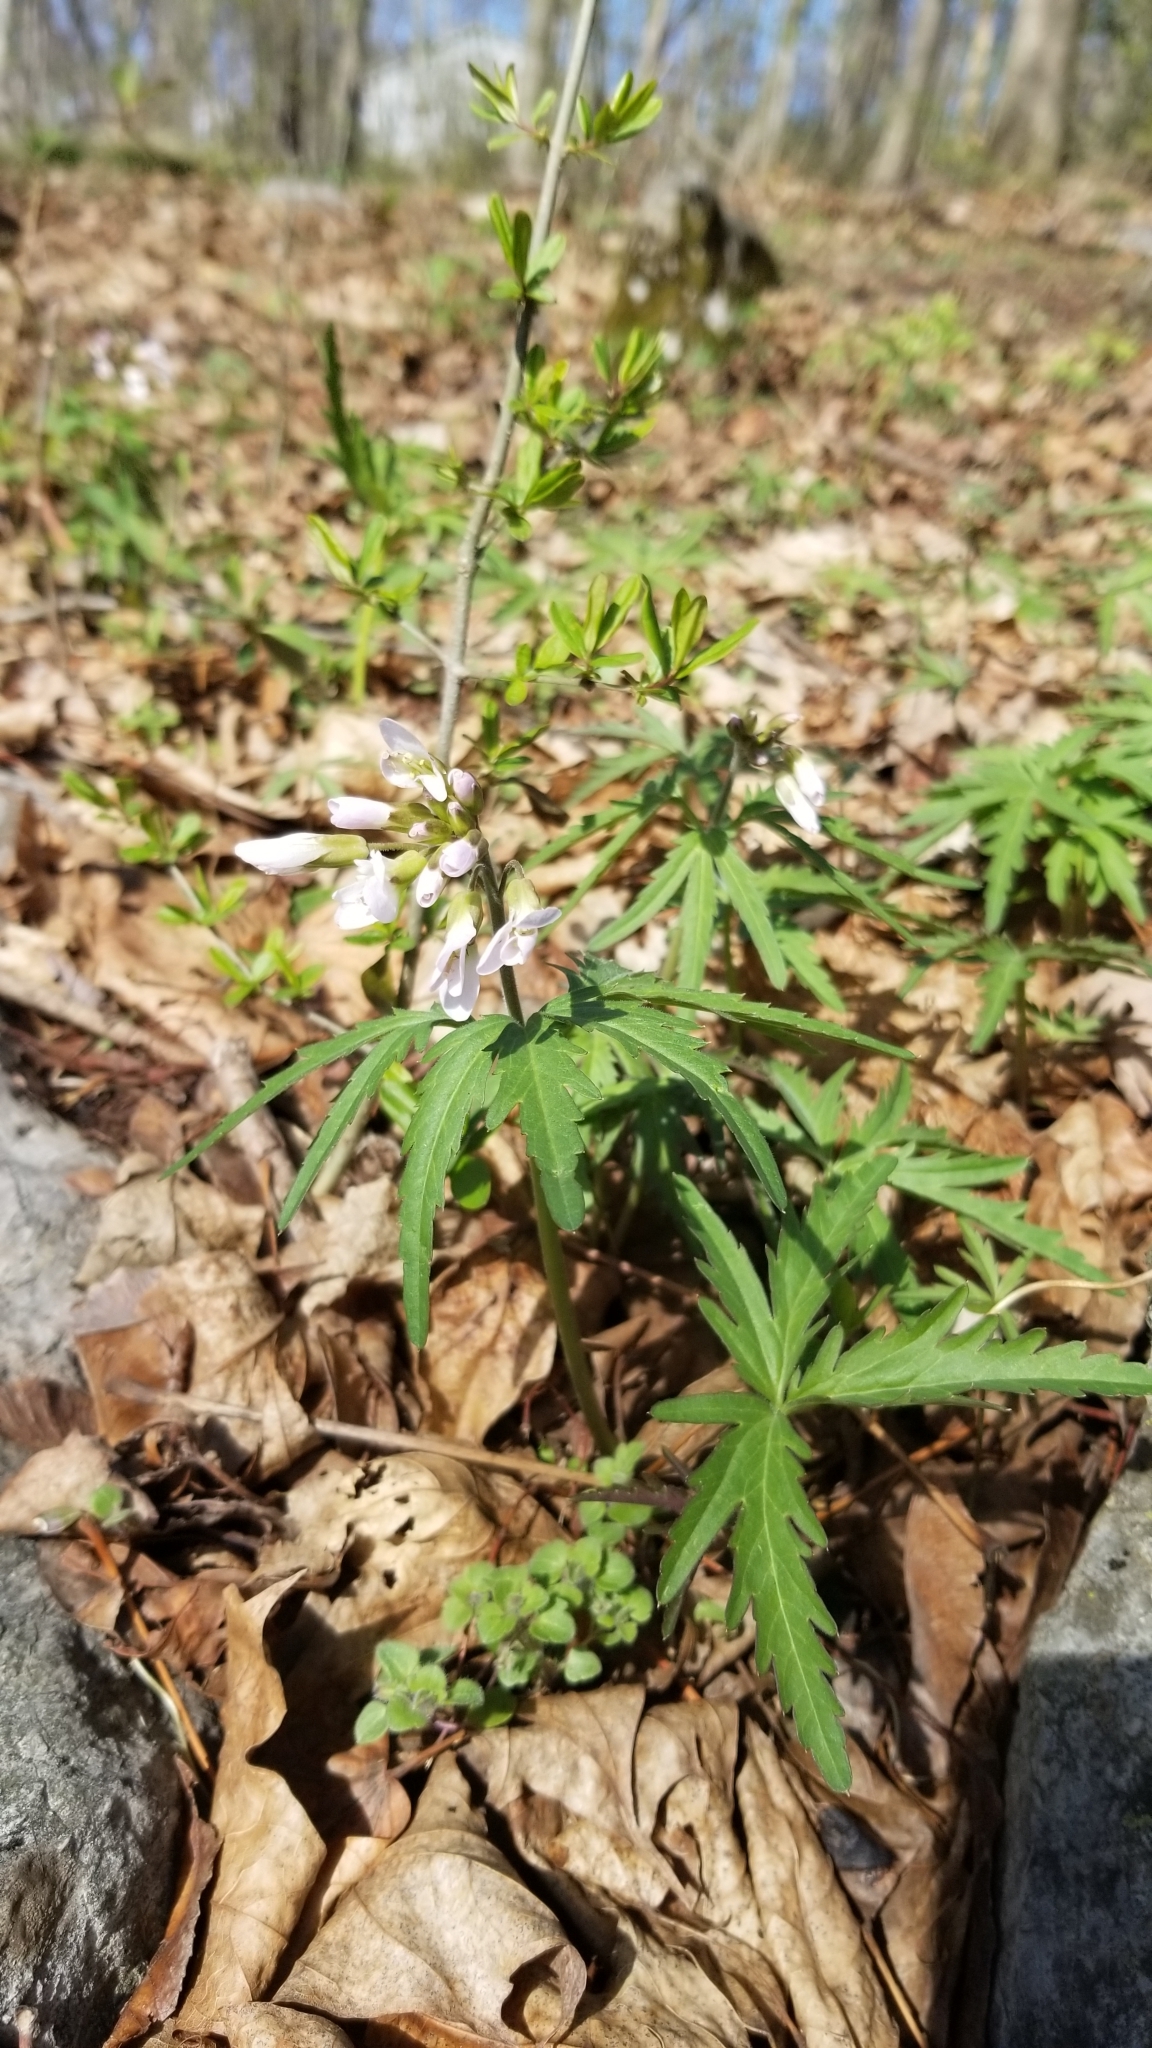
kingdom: Plantae
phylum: Tracheophyta
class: Magnoliopsida
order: Brassicales
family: Brassicaceae
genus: Cardamine
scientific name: Cardamine concatenata
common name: Cut-leaf toothcup
